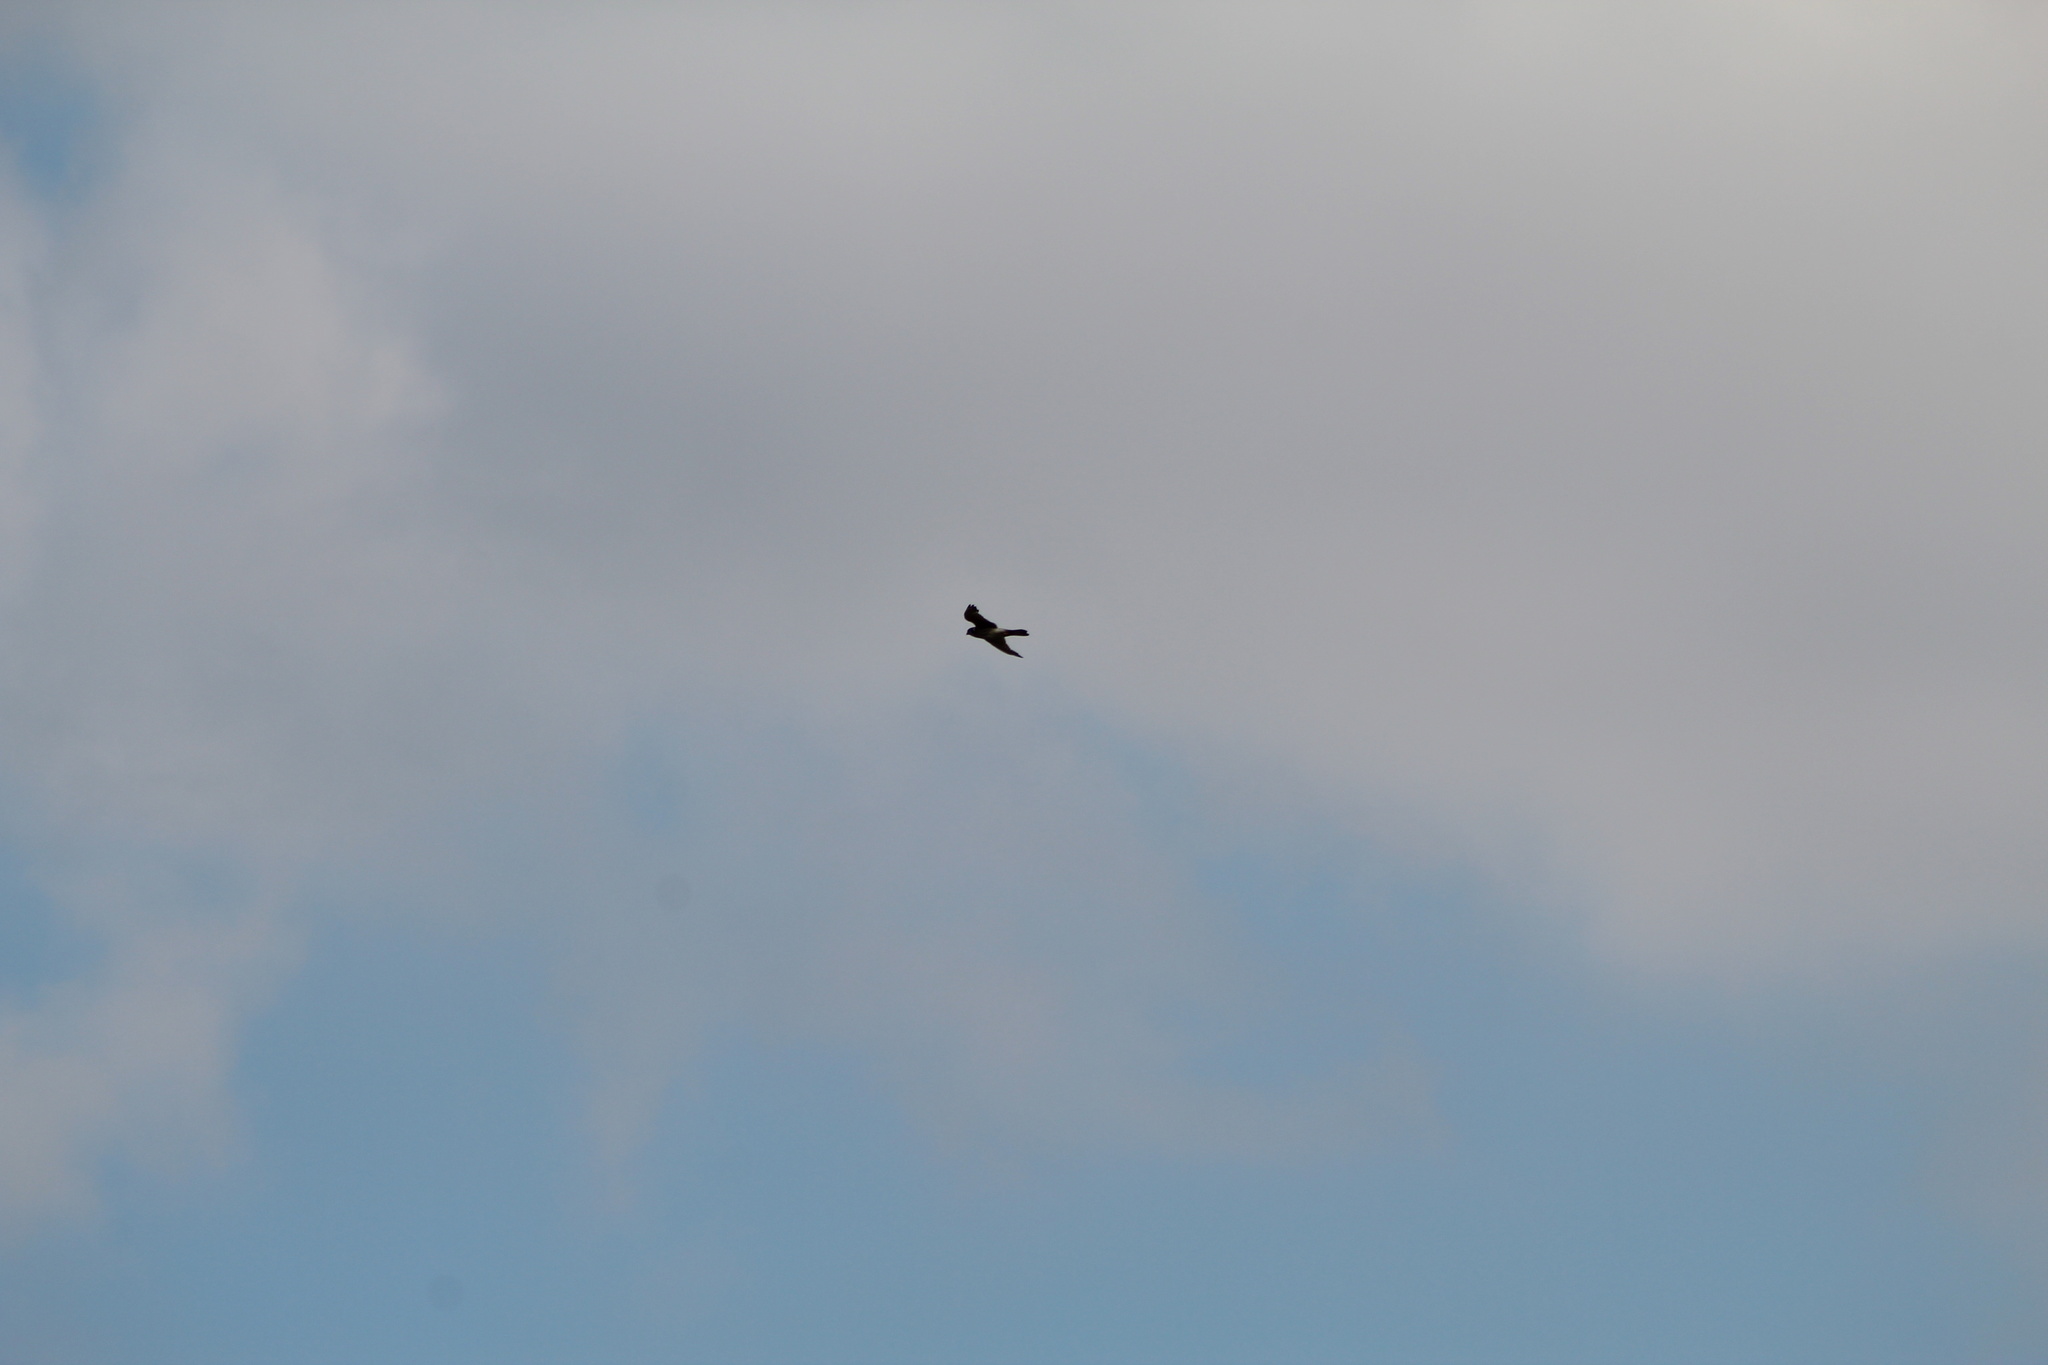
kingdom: Animalia
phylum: Chordata
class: Aves
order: Falconiformes
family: Falconidae
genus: Falco
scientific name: Falco sparverius
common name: American kestrel
